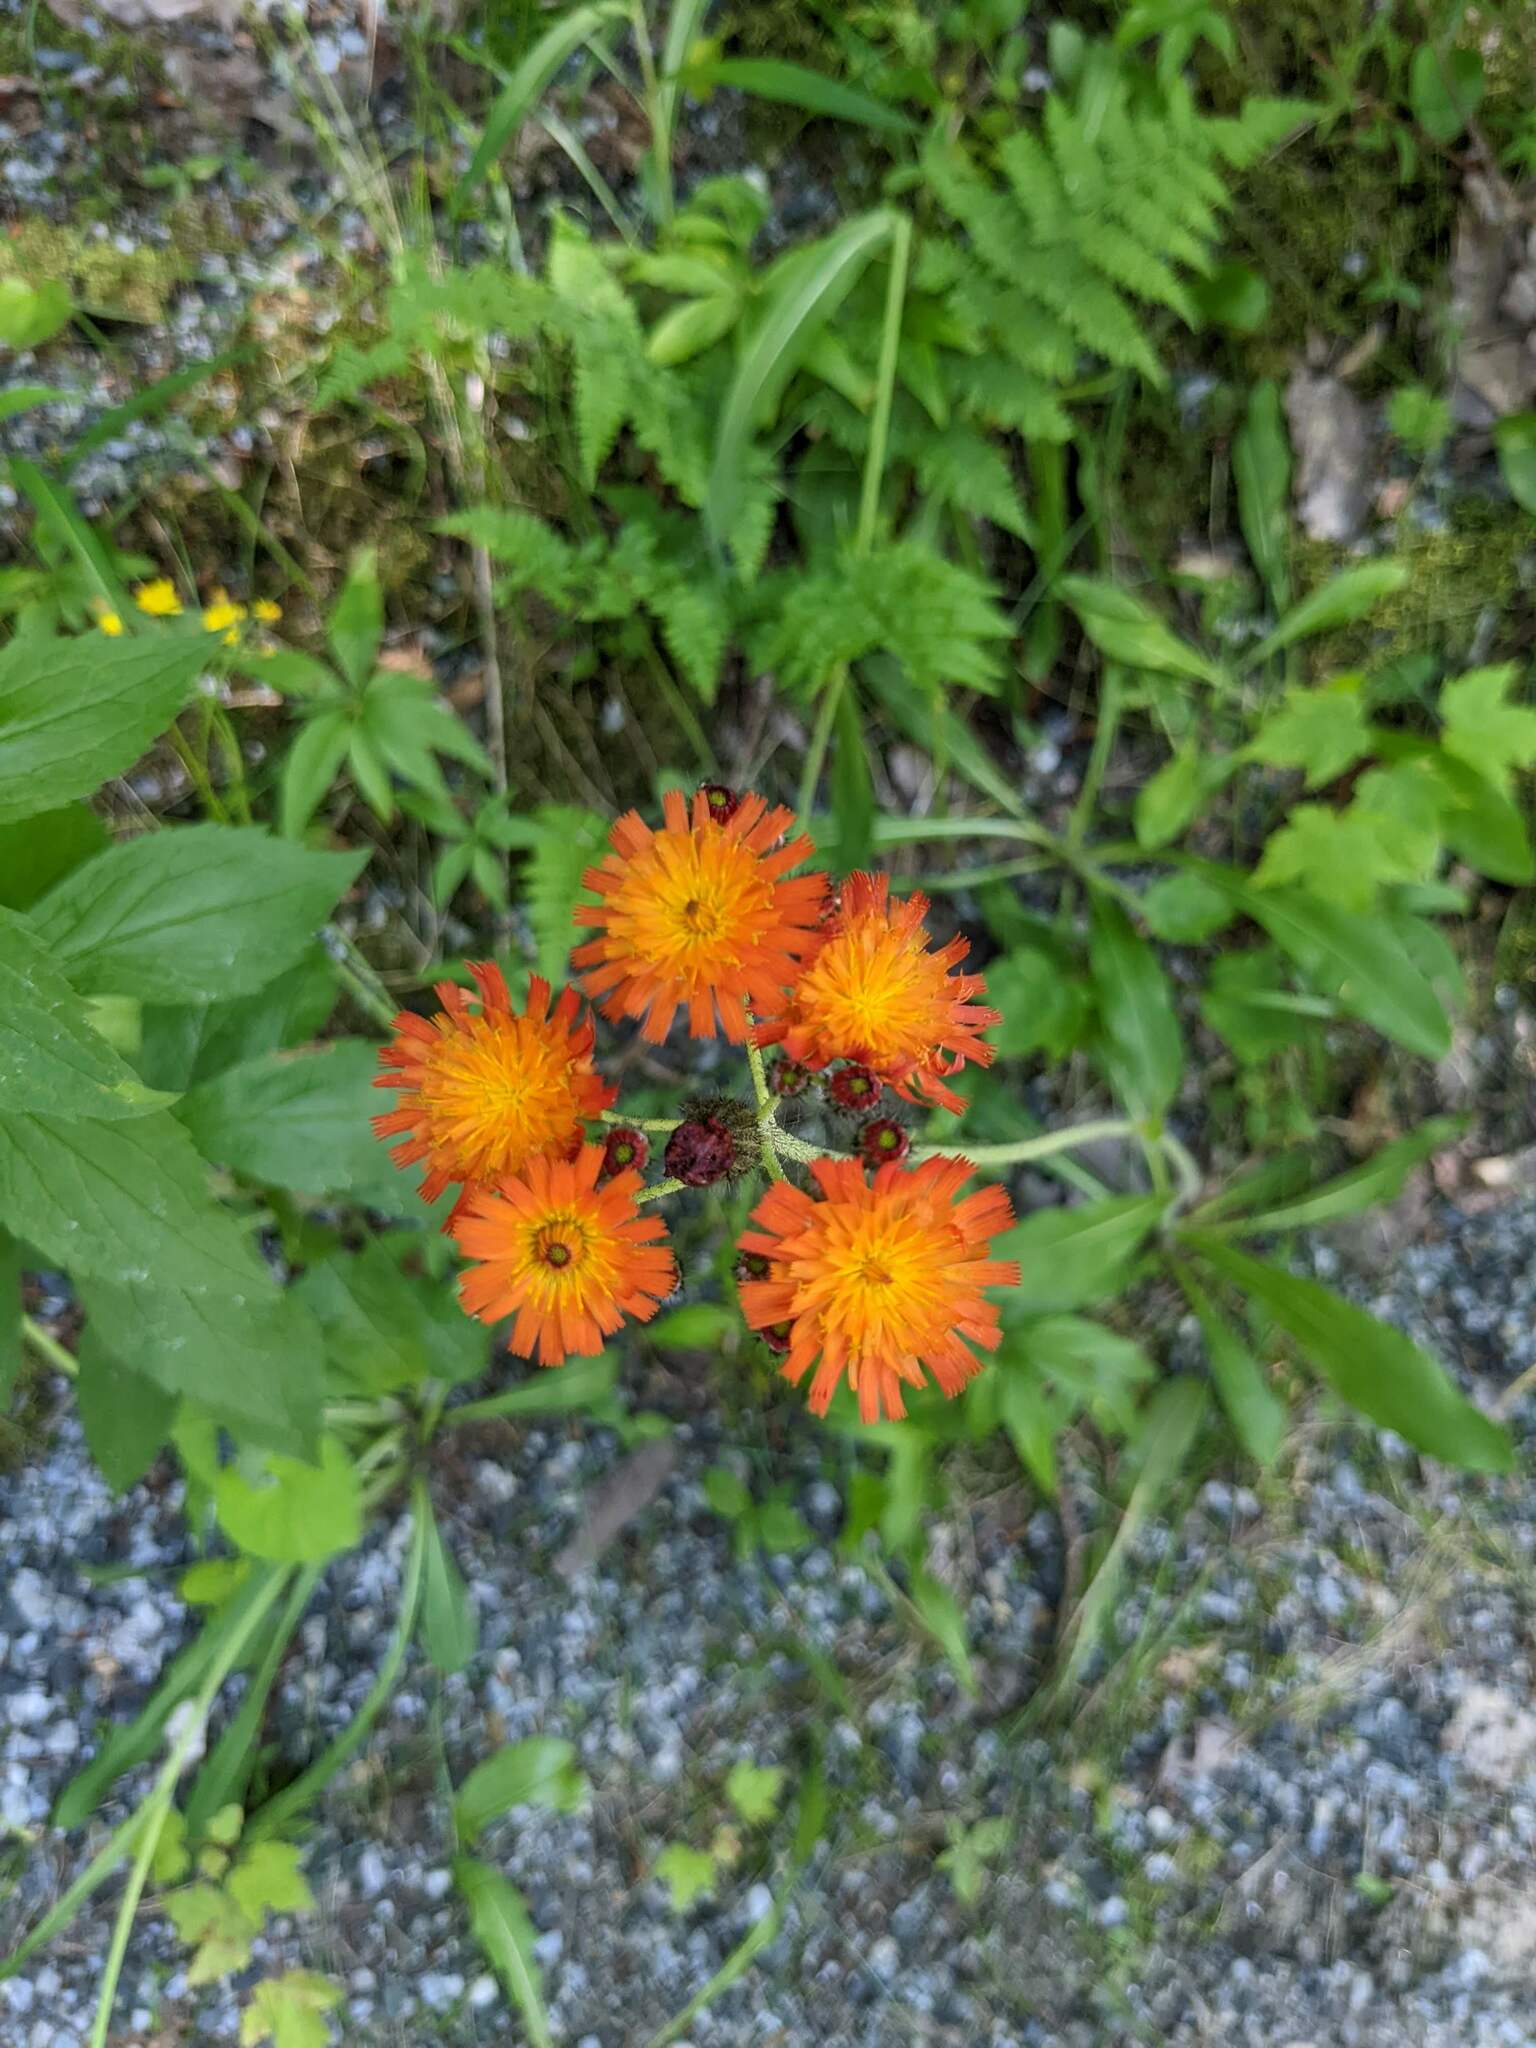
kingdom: Plantae
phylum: Tracheophyta
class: Magnoliopsida
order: Asterales
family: Asteraceae
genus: Pilosella
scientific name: Pilosella aurantiaca
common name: Fox-and-cubs
